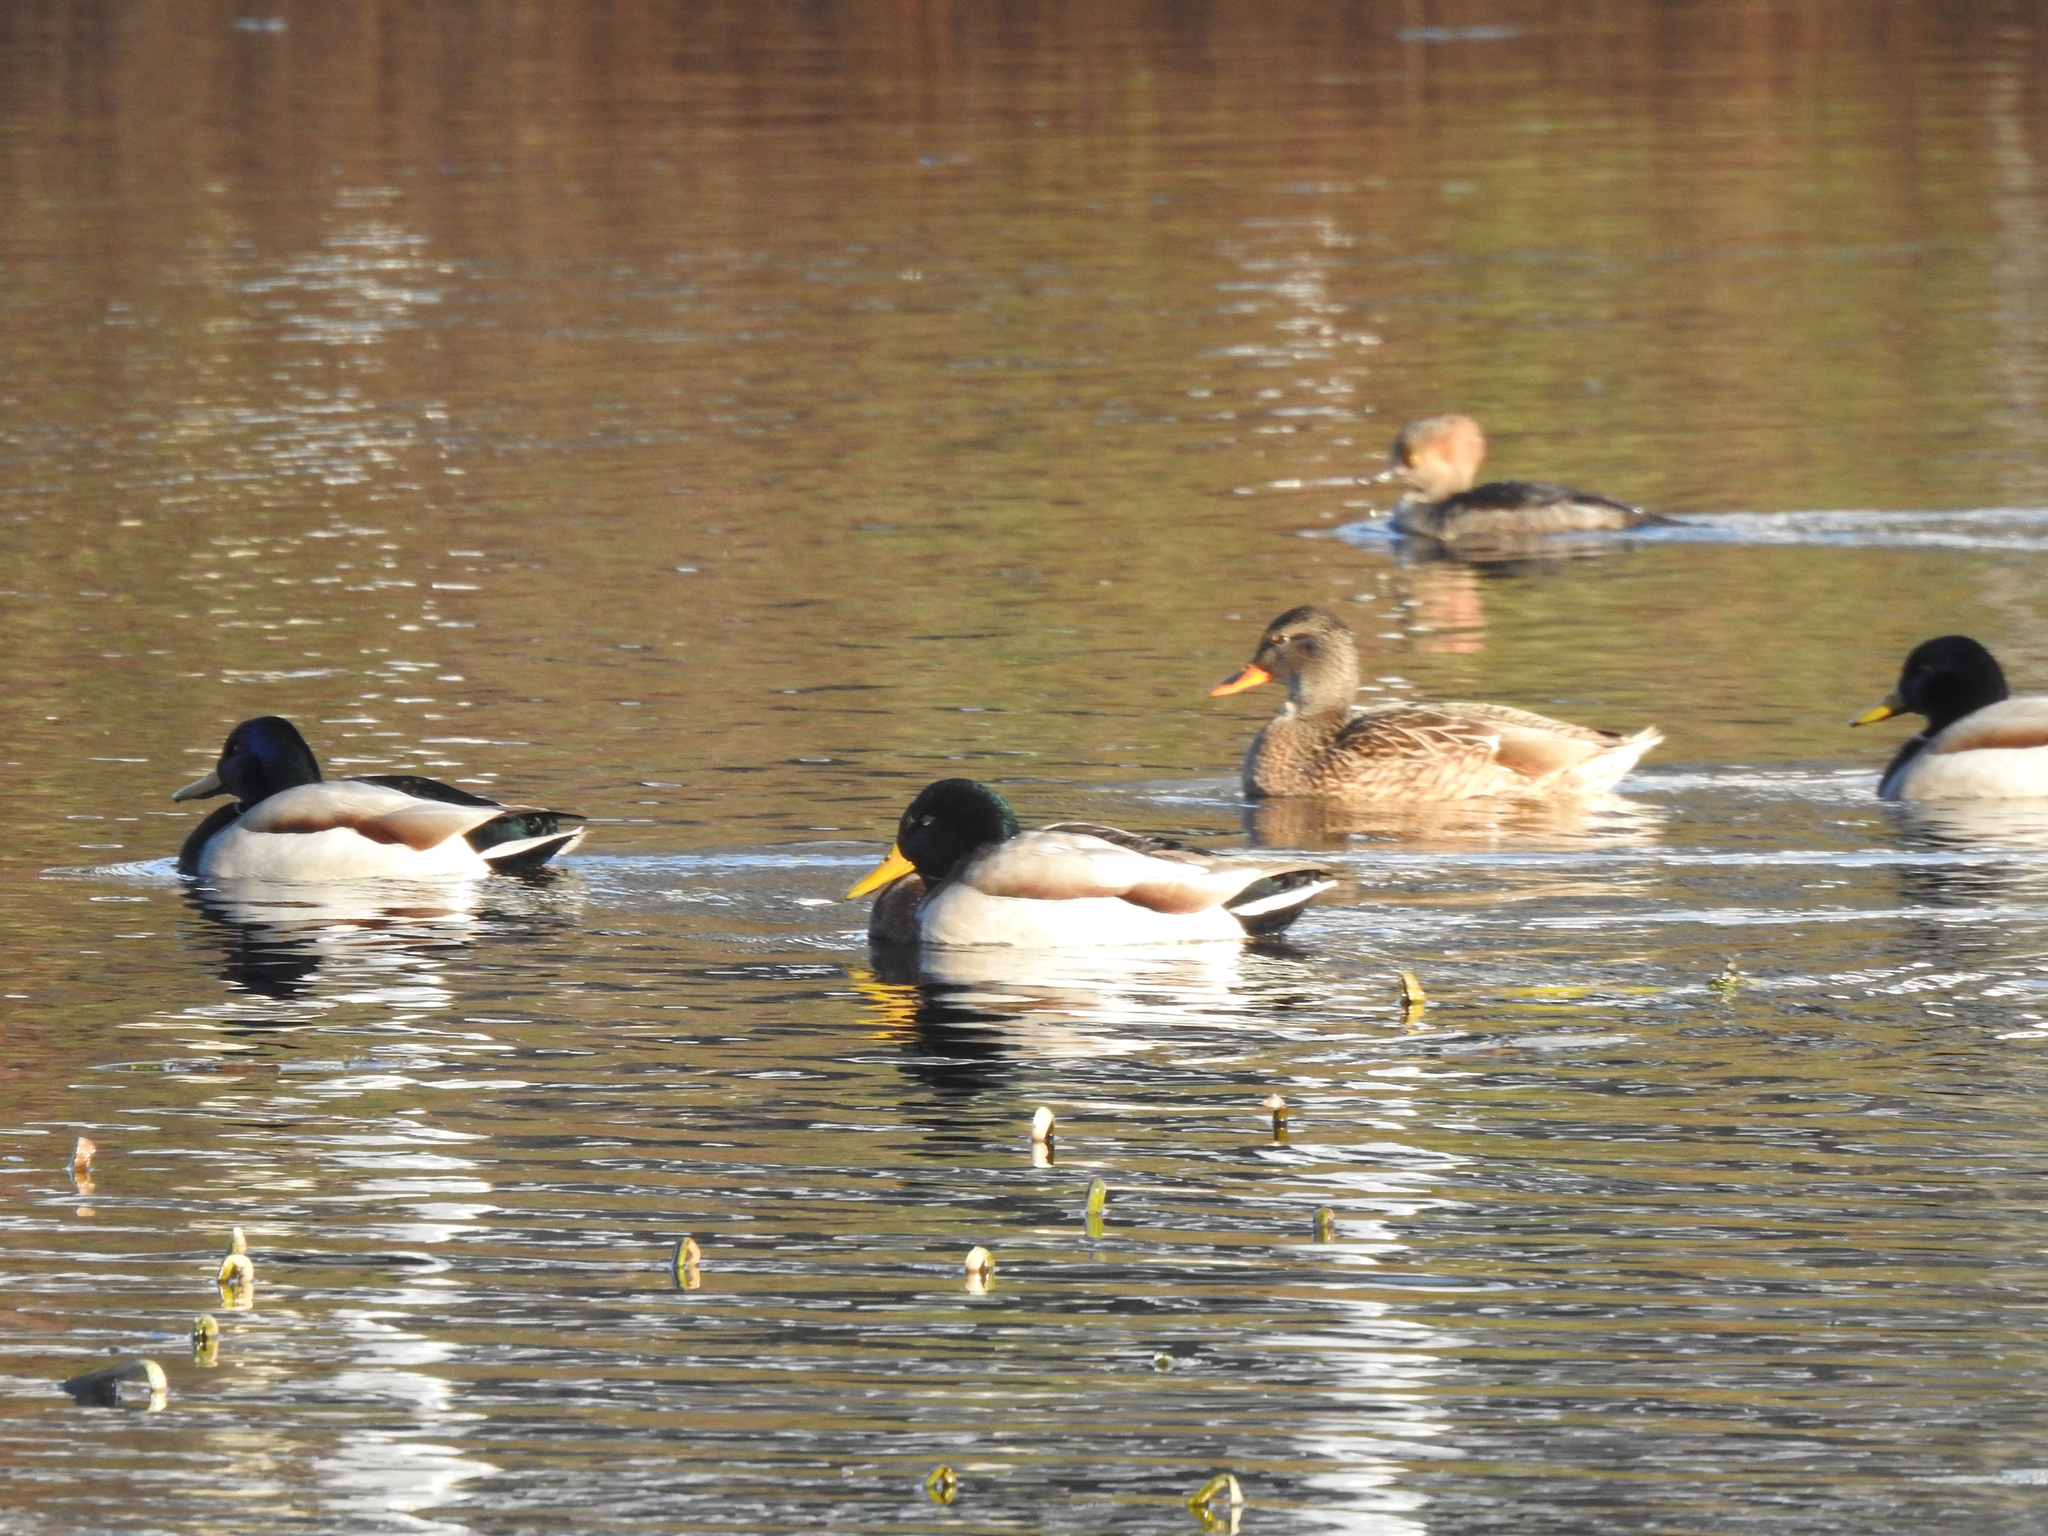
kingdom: Animalia
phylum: Chordata
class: Aves
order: Anseriformes
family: Anatidae
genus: Anas
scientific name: Anas platyrhynchos
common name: Mallard
